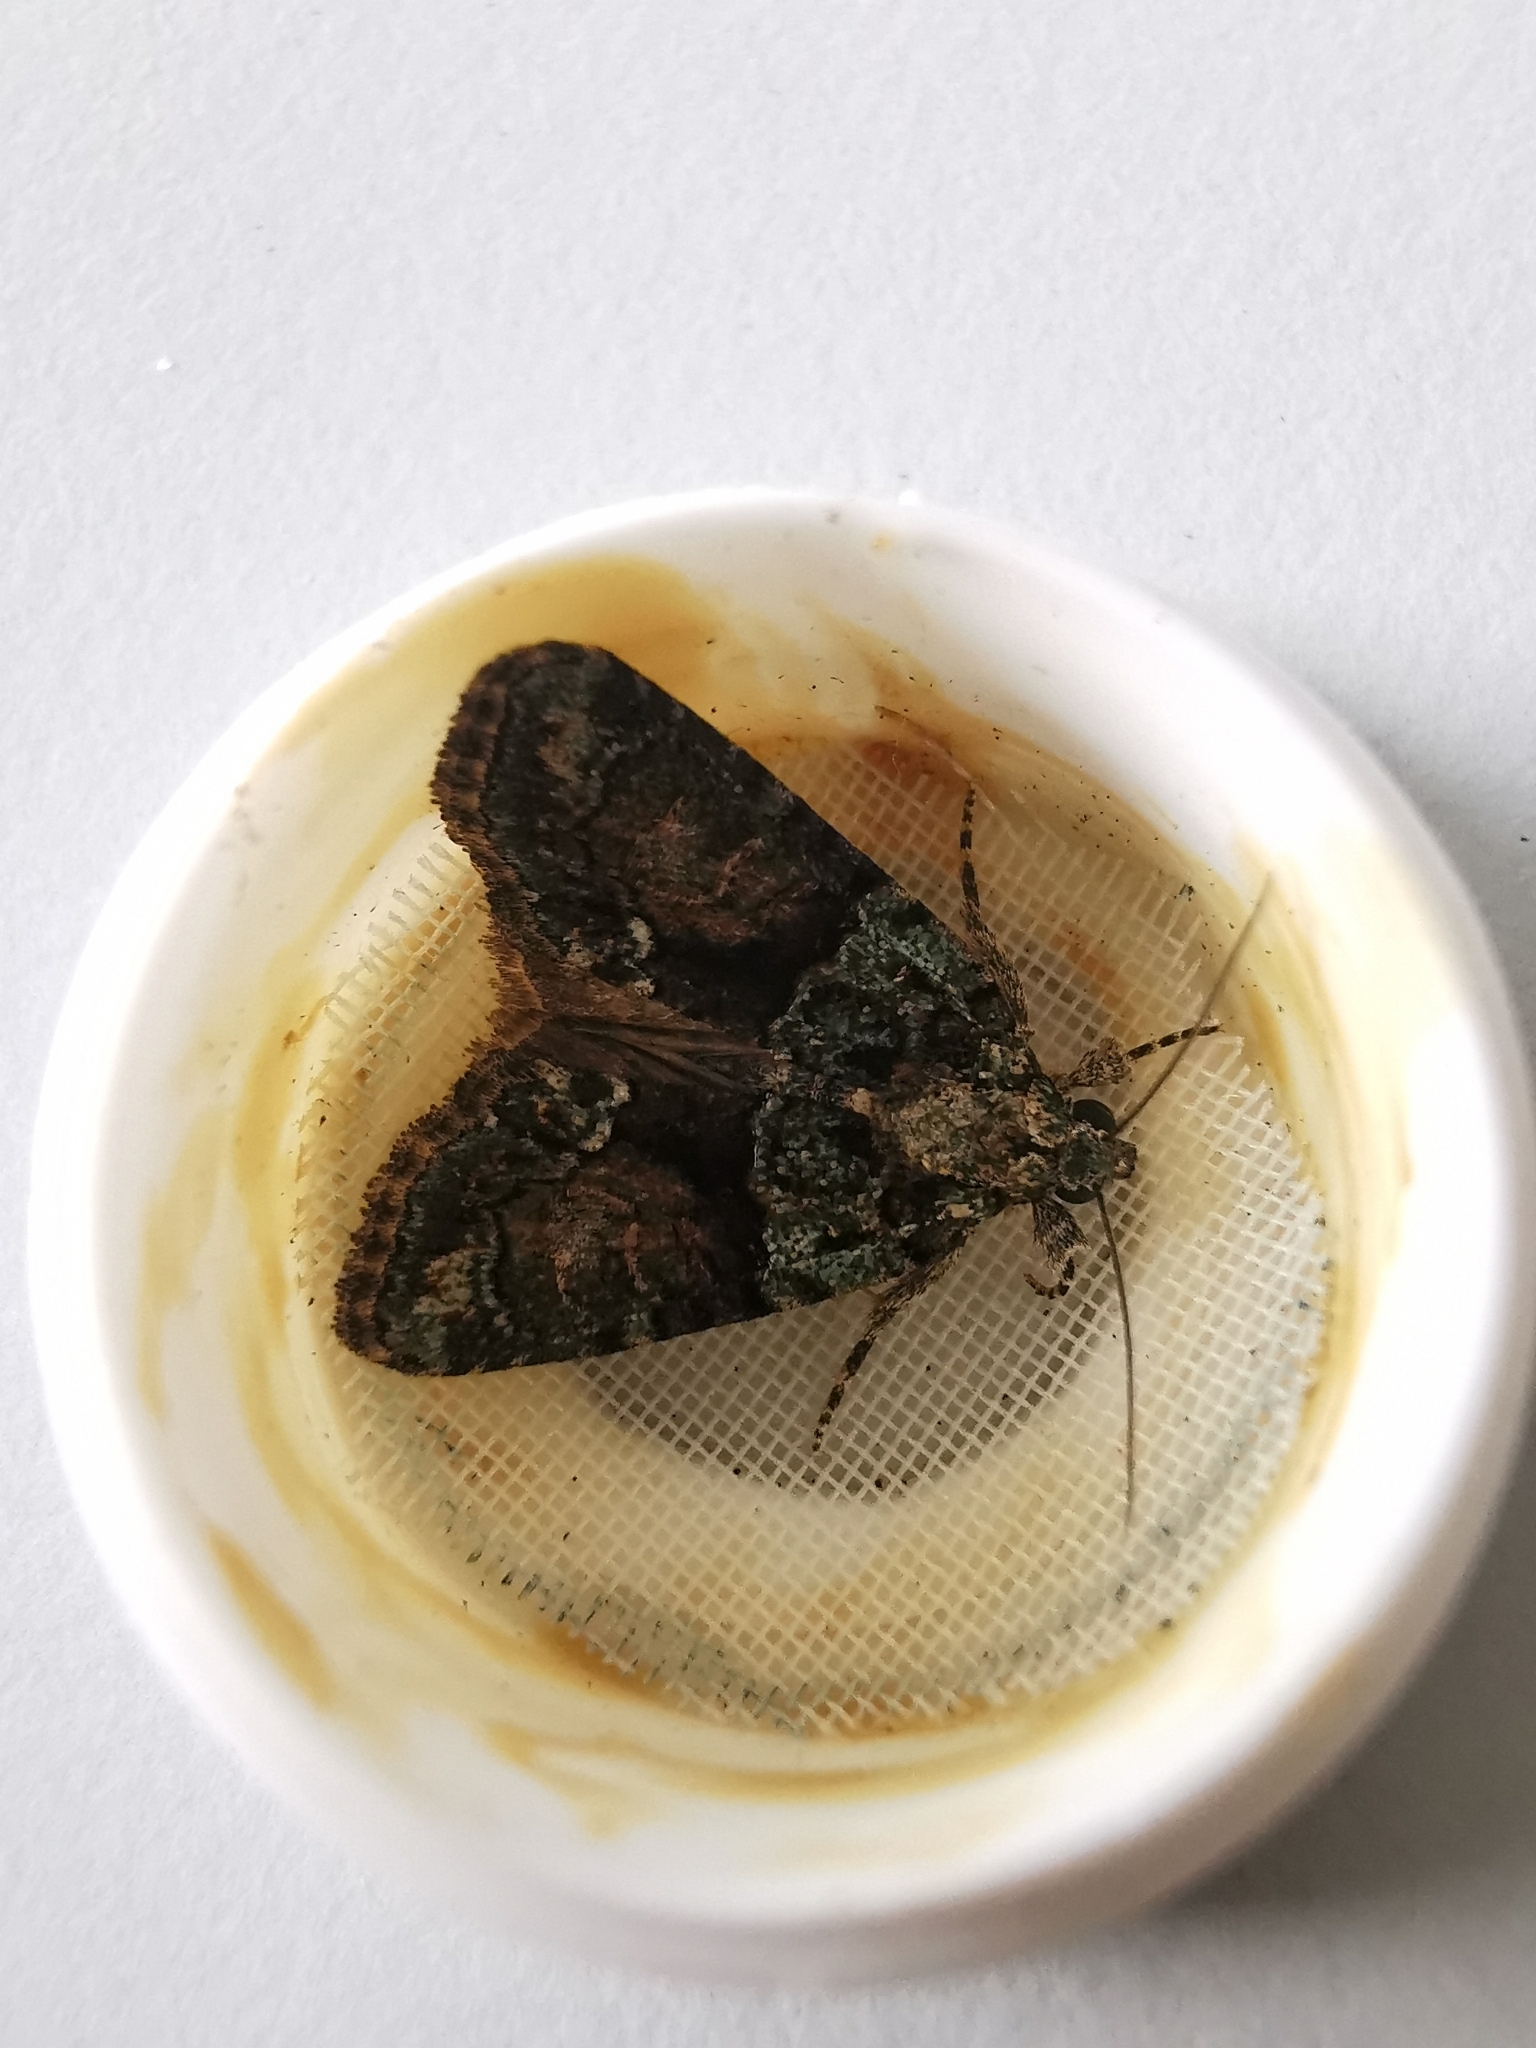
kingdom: Animalia
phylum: Arthropoda
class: Insecta
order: Lepidoptera
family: Noctuidae
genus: Cryphia
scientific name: Cryphia algae
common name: Tree-lichen beauty
